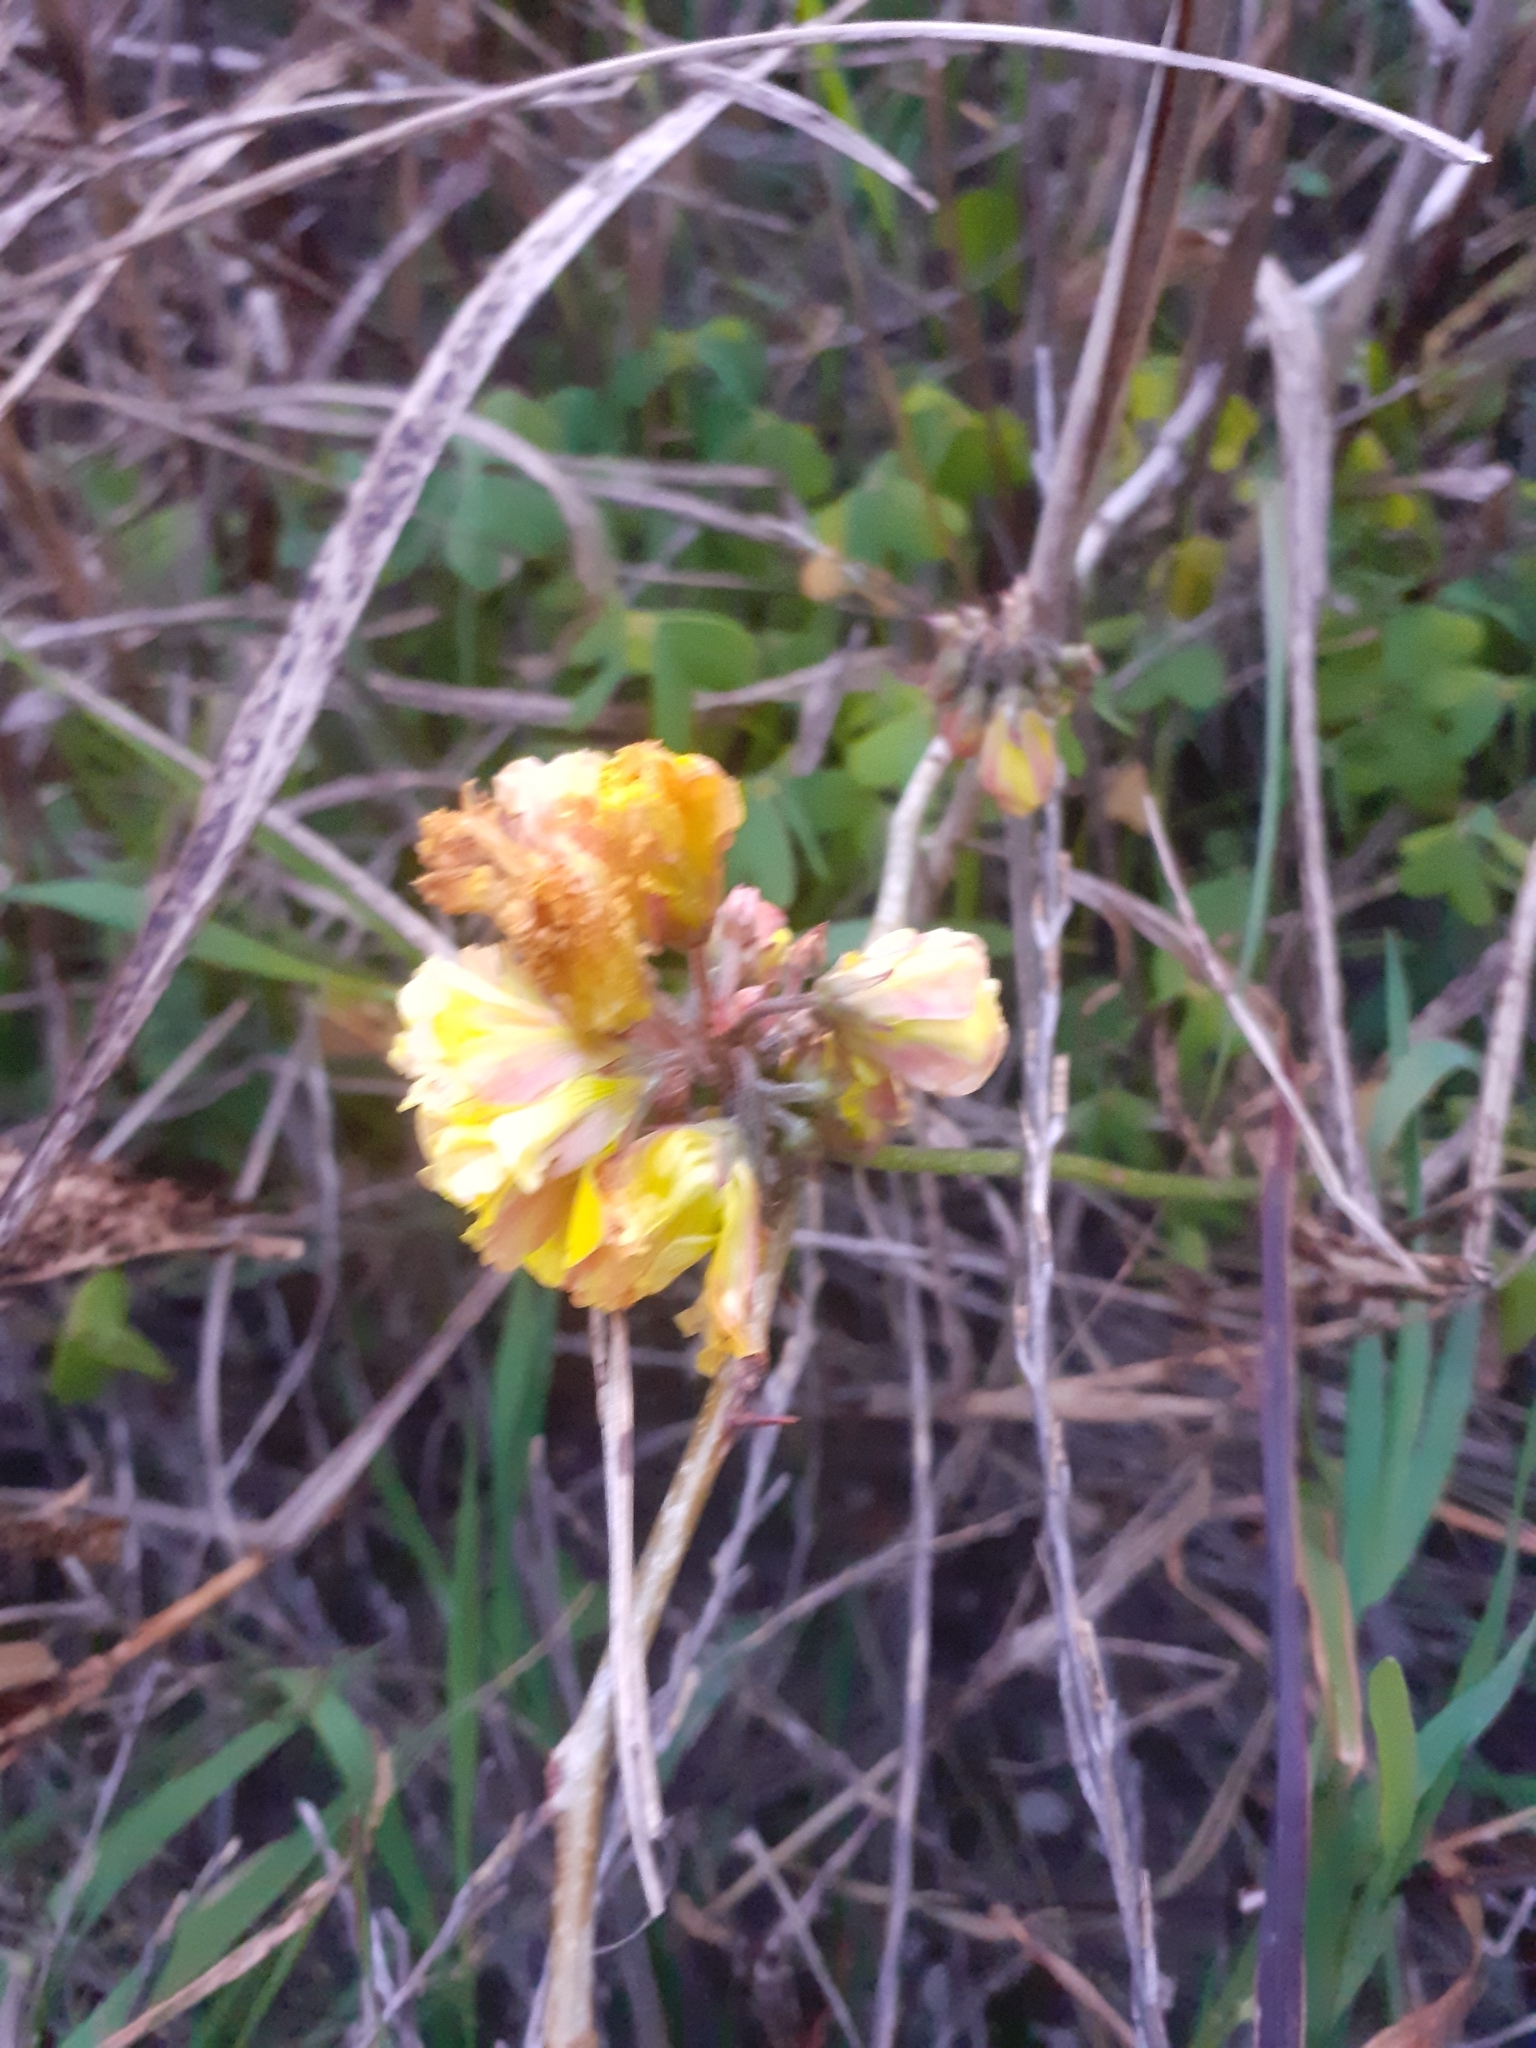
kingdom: Plantae
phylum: Tracheophyta
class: Magnoliopsida
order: Oxalidales
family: Oxalidaceae
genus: Oxalis
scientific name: Oxalis pes-caprae
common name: Bermuda-buttercup
